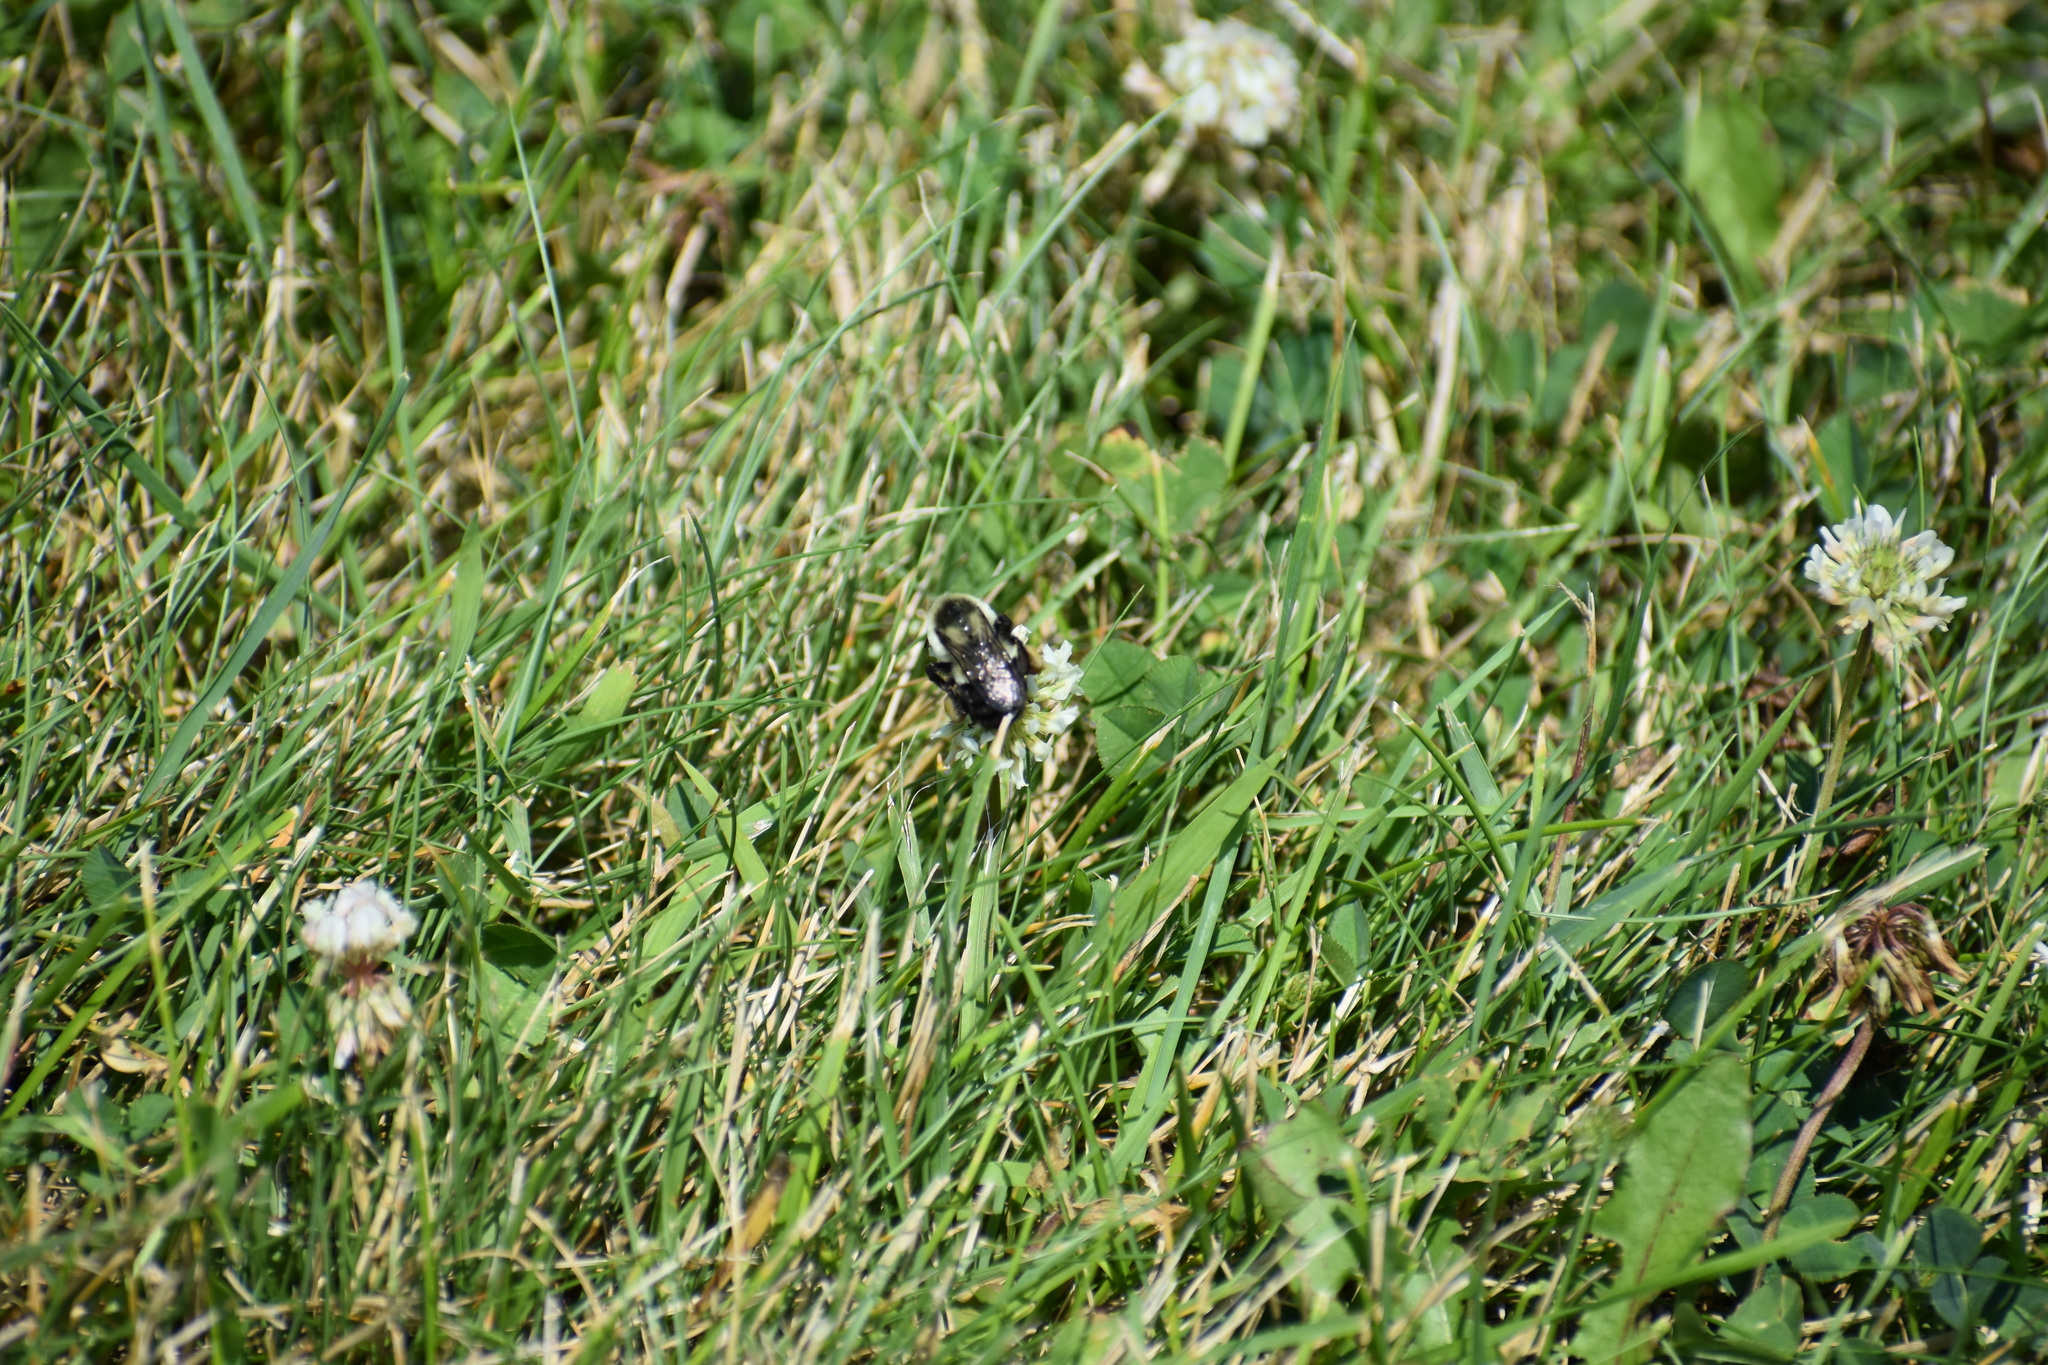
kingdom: Animalia
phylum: Arthropoda
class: Insecta
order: Hymenoptera
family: Apidae
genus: Bombus
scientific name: Bombus impatiens
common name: Common eastern bumble bee
